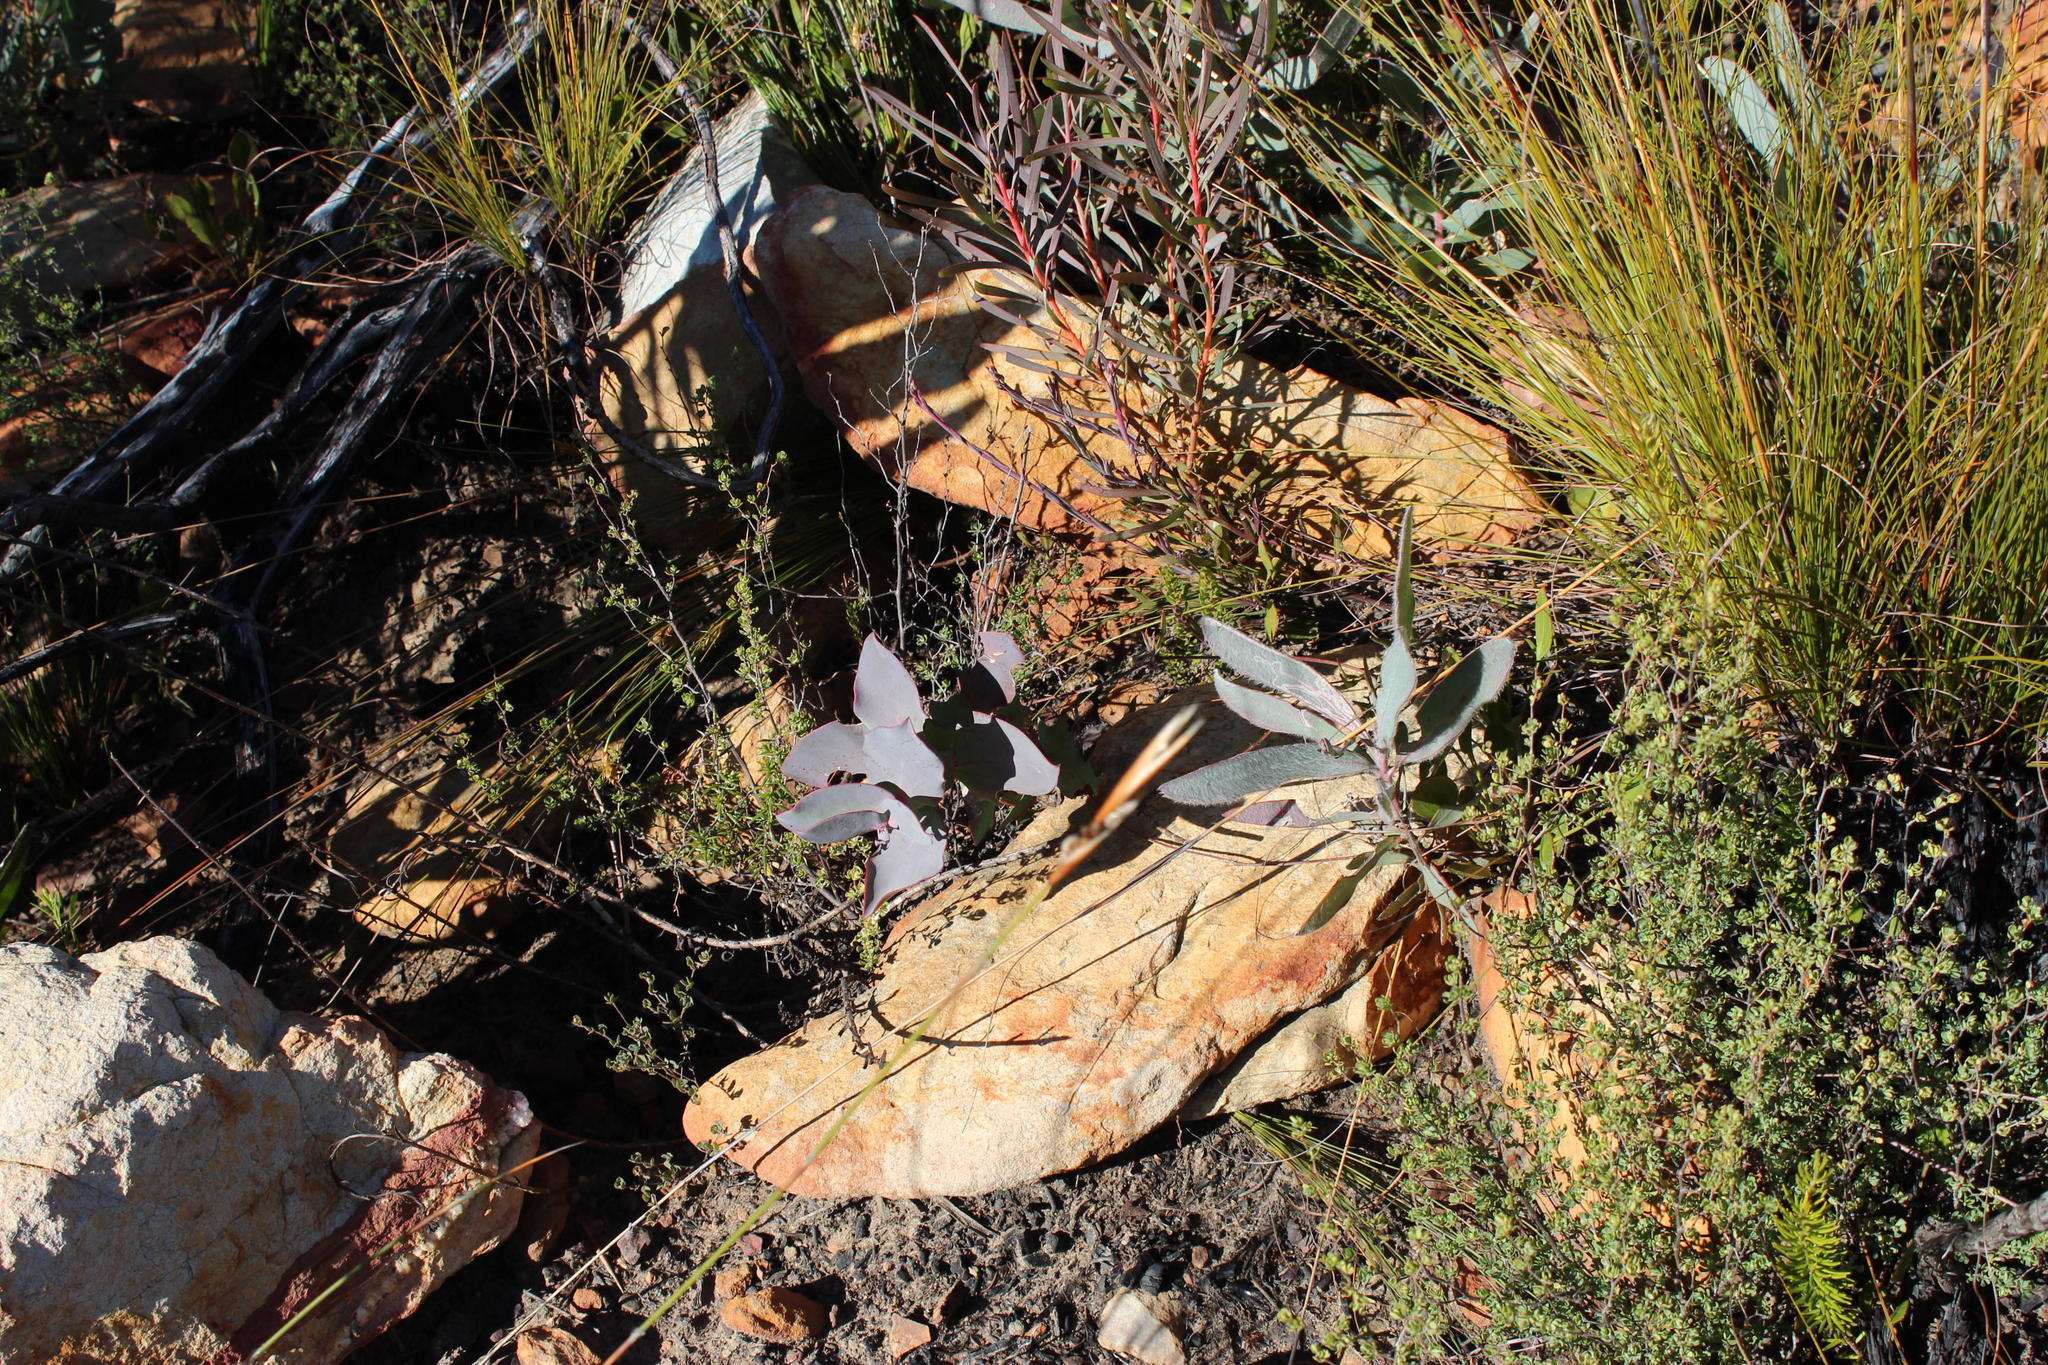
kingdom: Plantae
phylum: Tracheophyta
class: Magnoliopsida
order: Proteales
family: Proteaceae
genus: Protea
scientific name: Protea lorifolia
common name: Strap-leaved protea
